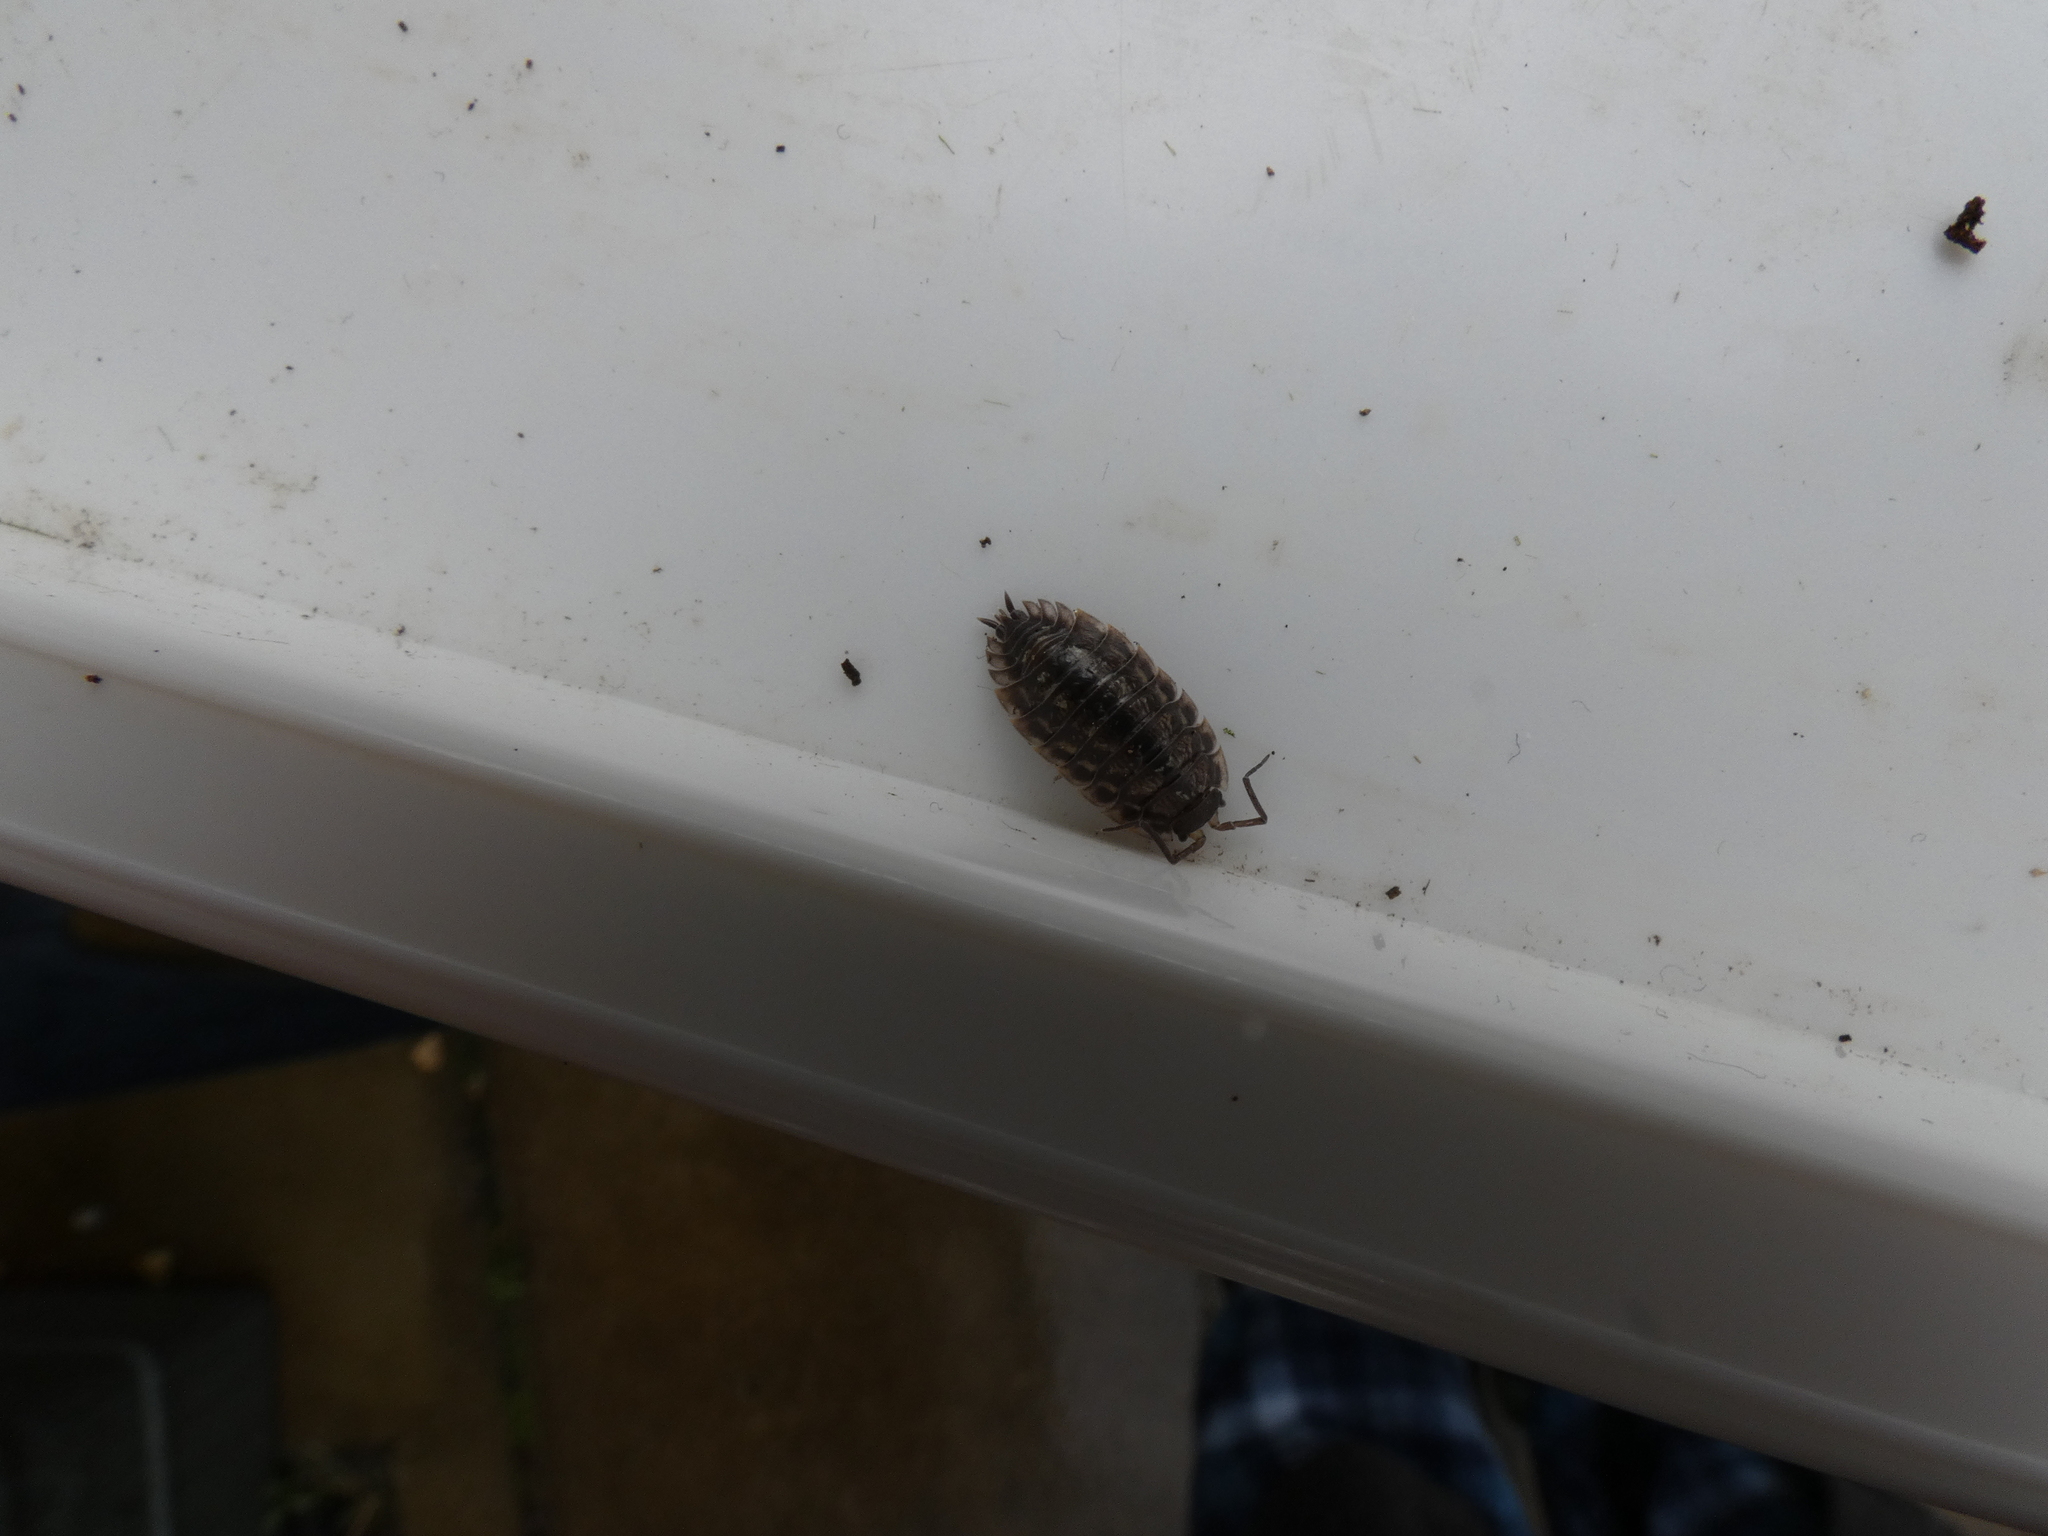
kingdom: Animalia
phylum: Arthropoda
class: Malacostraca
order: Isopoda
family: Oniscidae
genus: Oniscus
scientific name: Oniscus asellus
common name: Common shiny woodlouse
